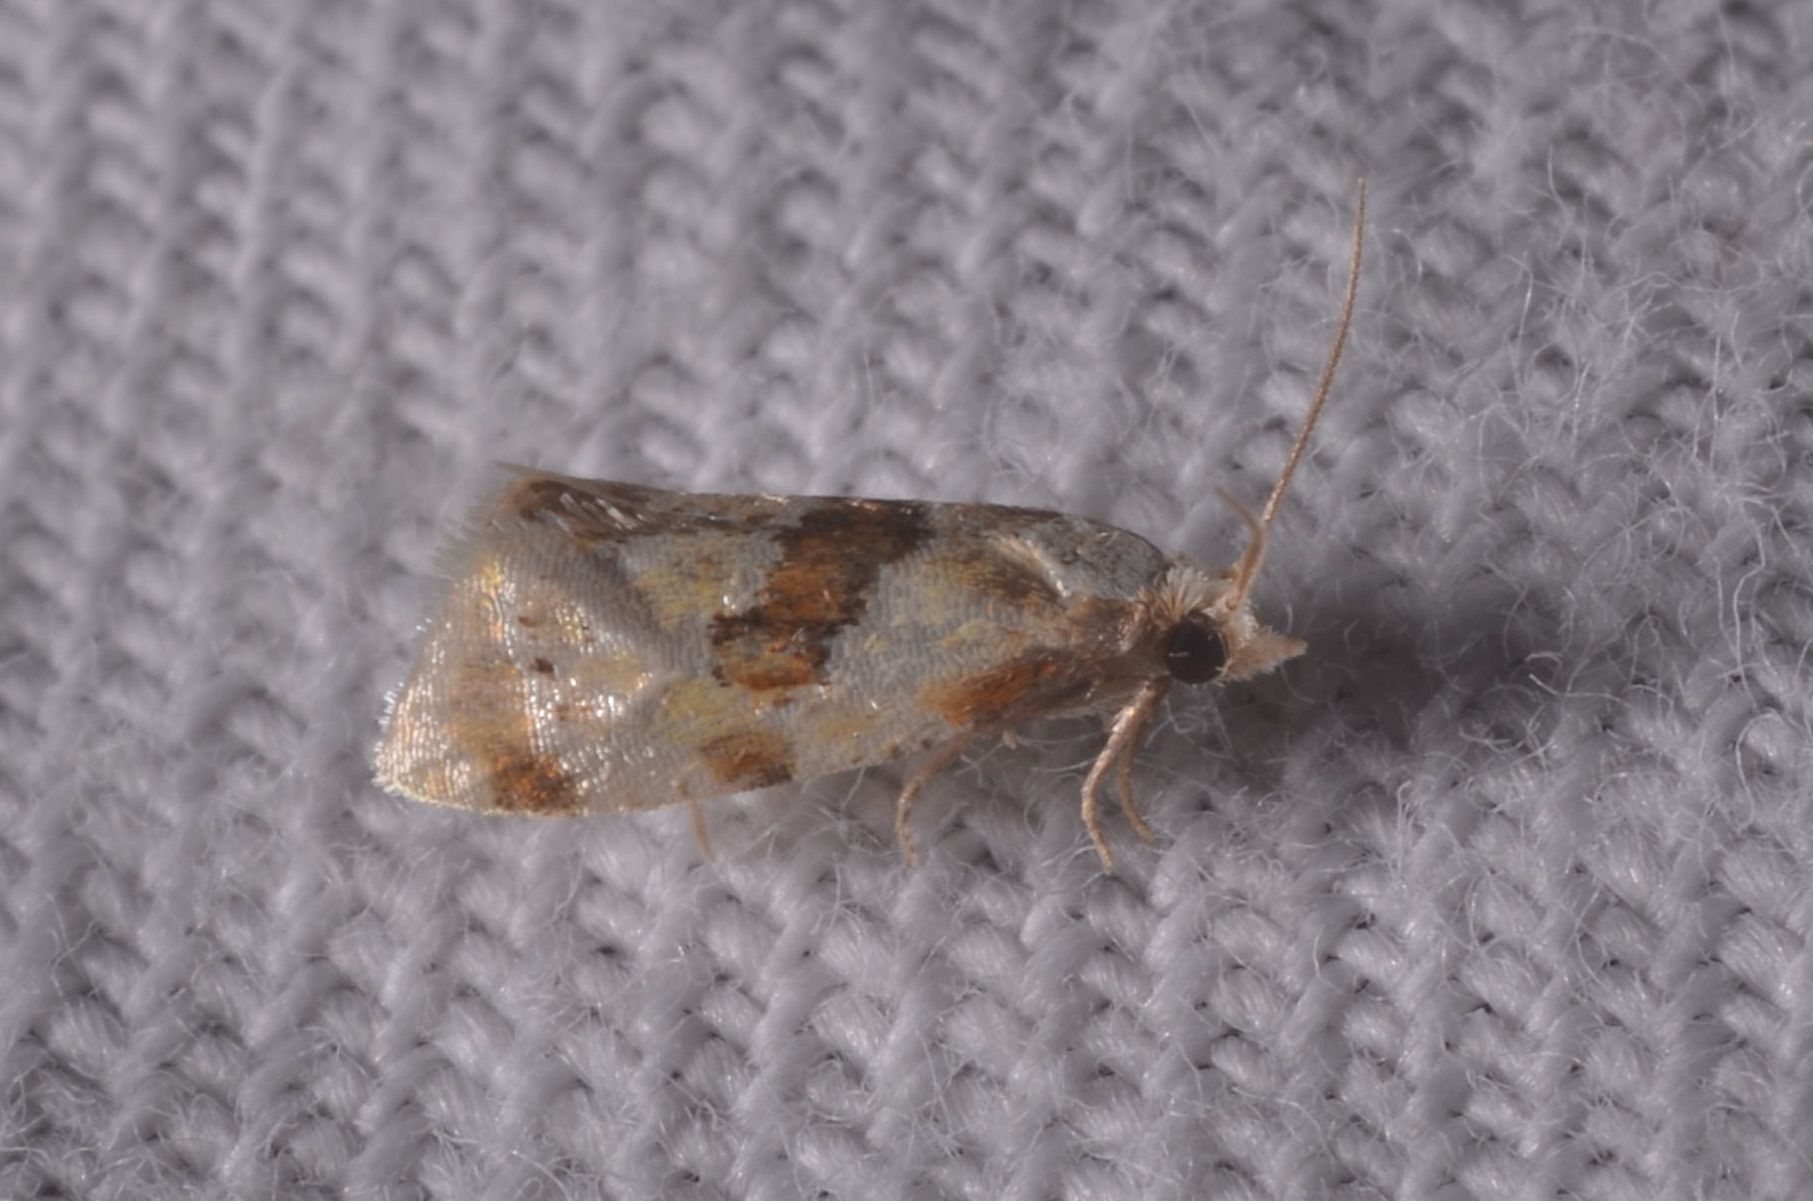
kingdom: Animalia
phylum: Arthropoda
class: Insecta
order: Lepidoptera
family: Tortricidae
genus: Aethes
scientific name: Aethes rubigana
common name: Burdock conch
